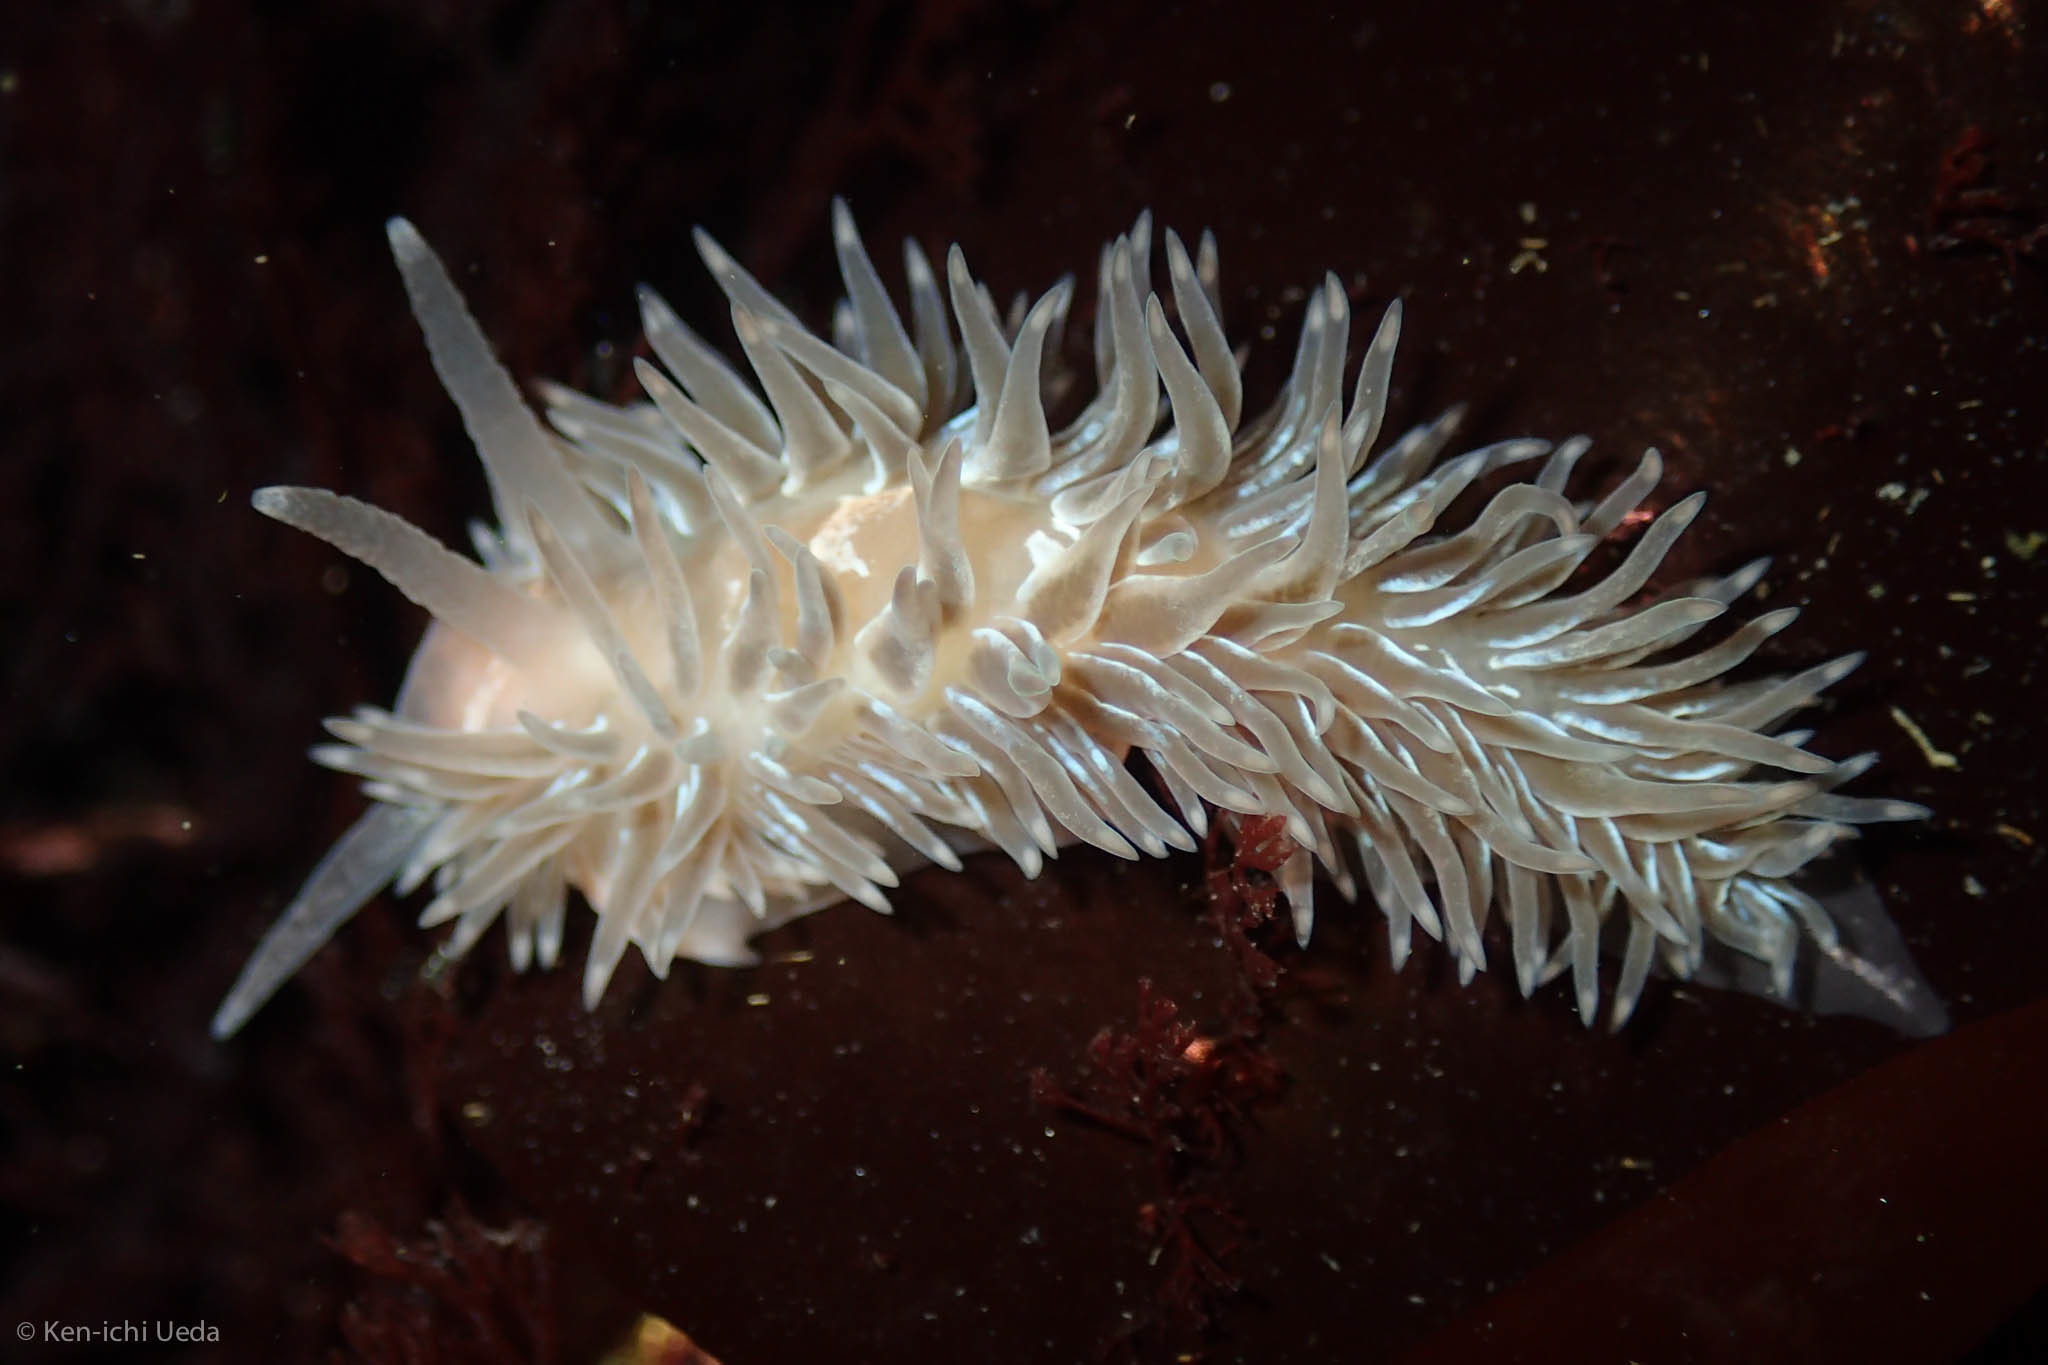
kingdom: Animalia
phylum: Mollusca
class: Gastropoda
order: Nudibranchia
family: Aeolidiidae
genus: Aeolidia
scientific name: Aeolidia loui
